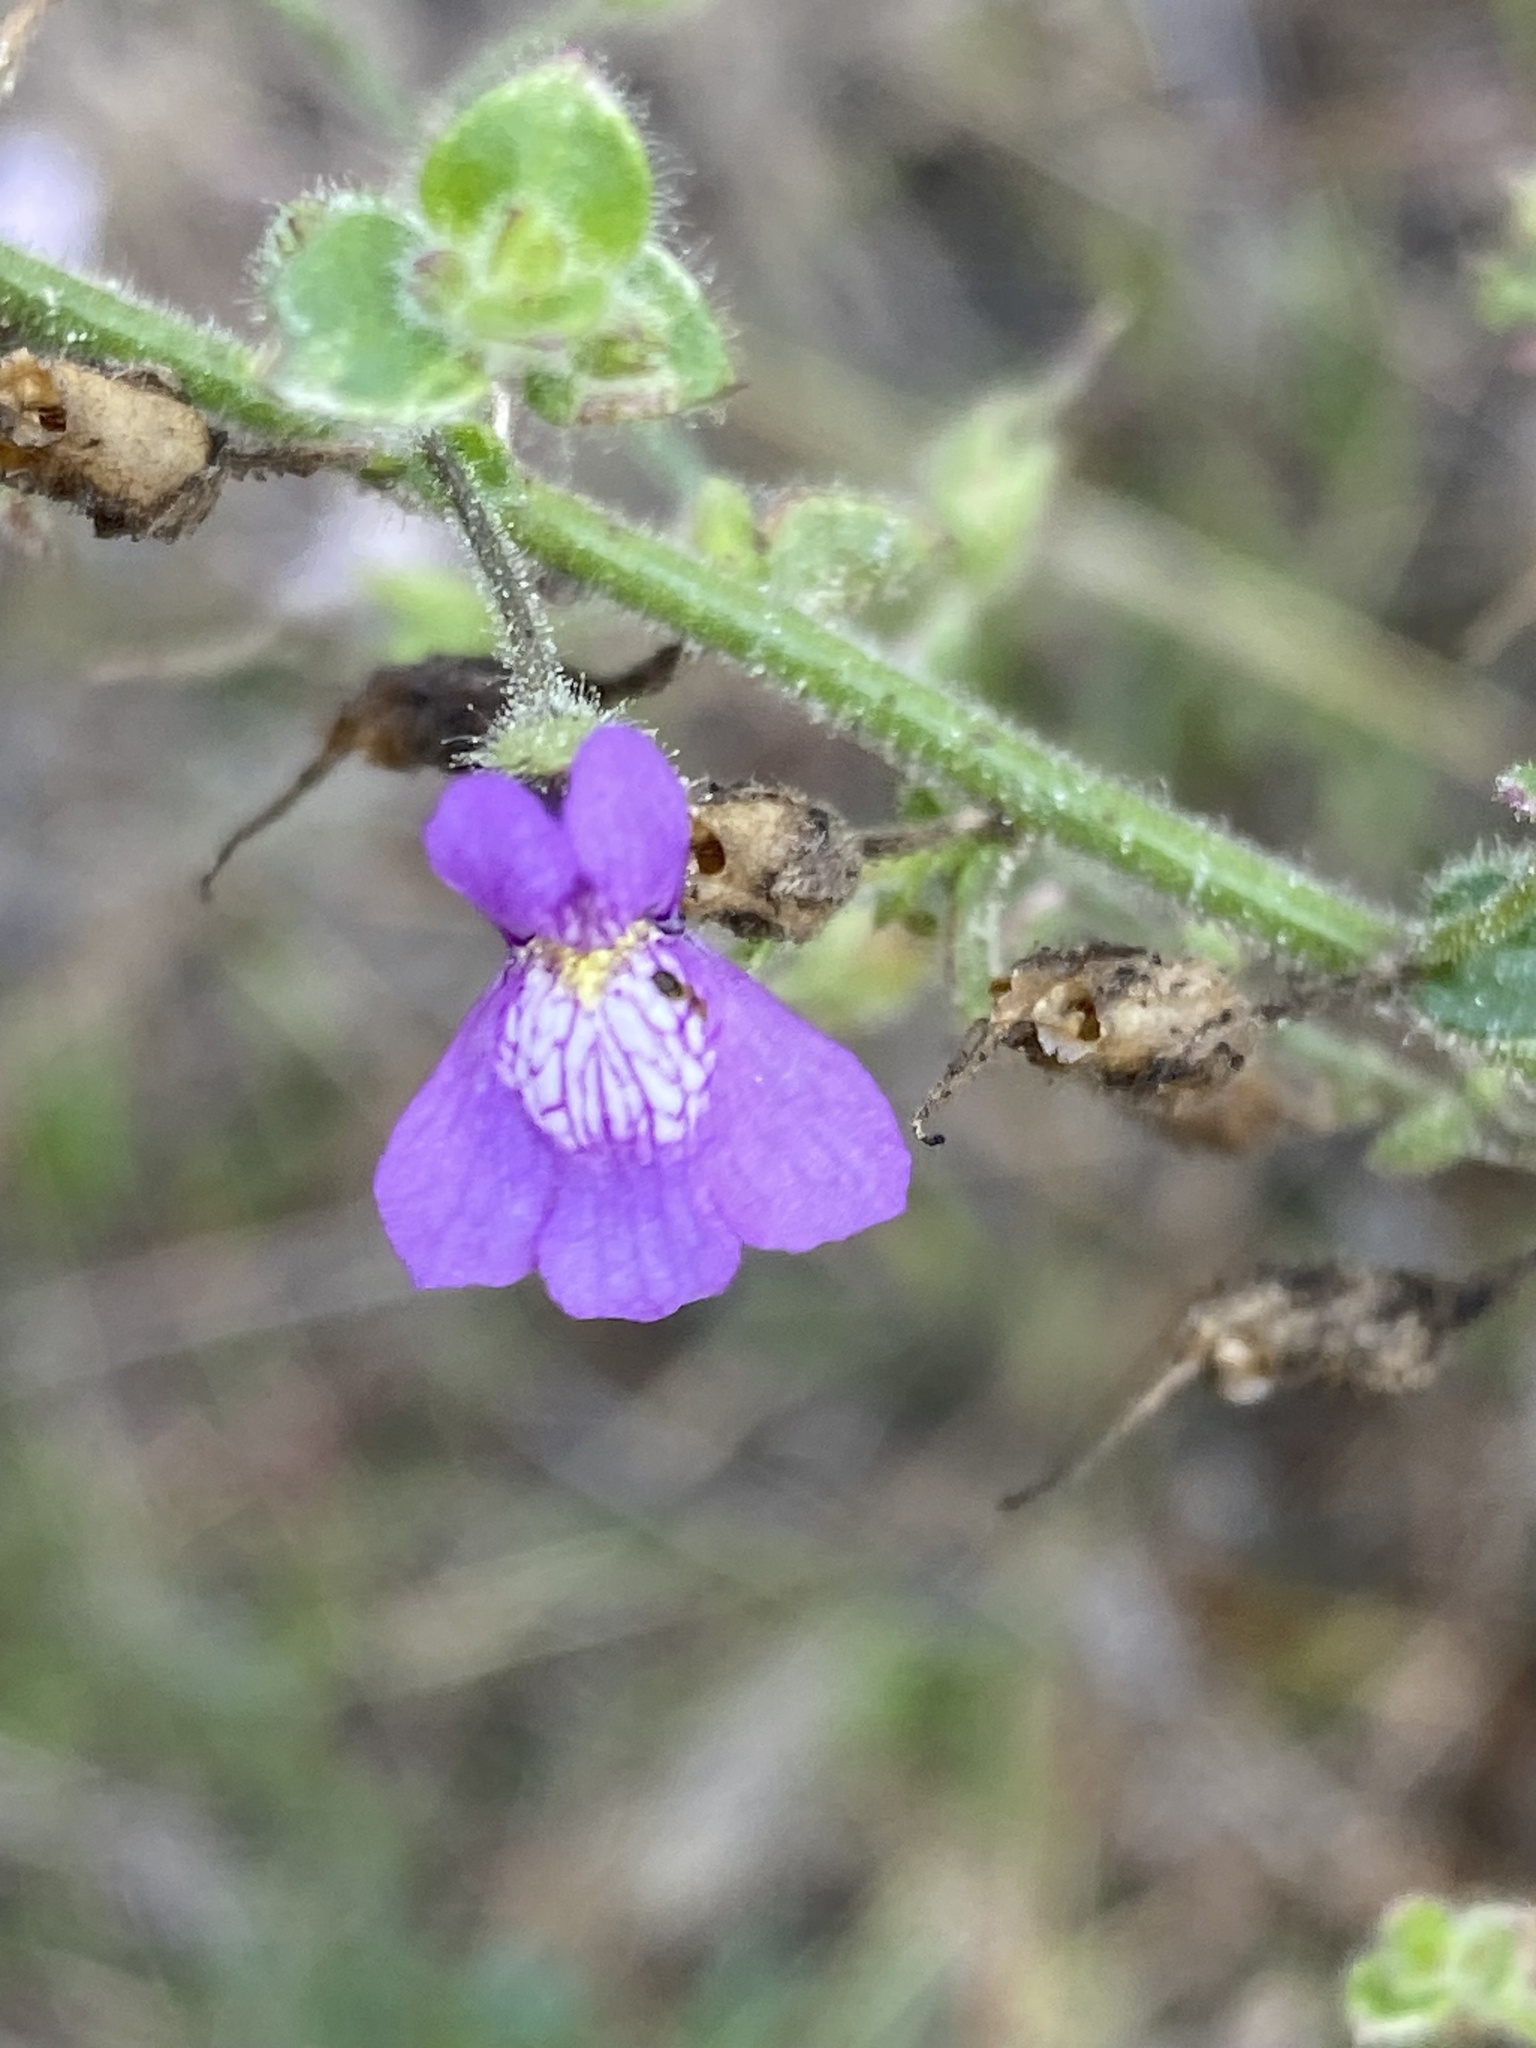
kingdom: Plantae
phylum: Tracheophyta
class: Magnoliopsida
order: Lamiales
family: Plantaginaceae
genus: Sairocarpus
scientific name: Sairocarpus nuttallianus
